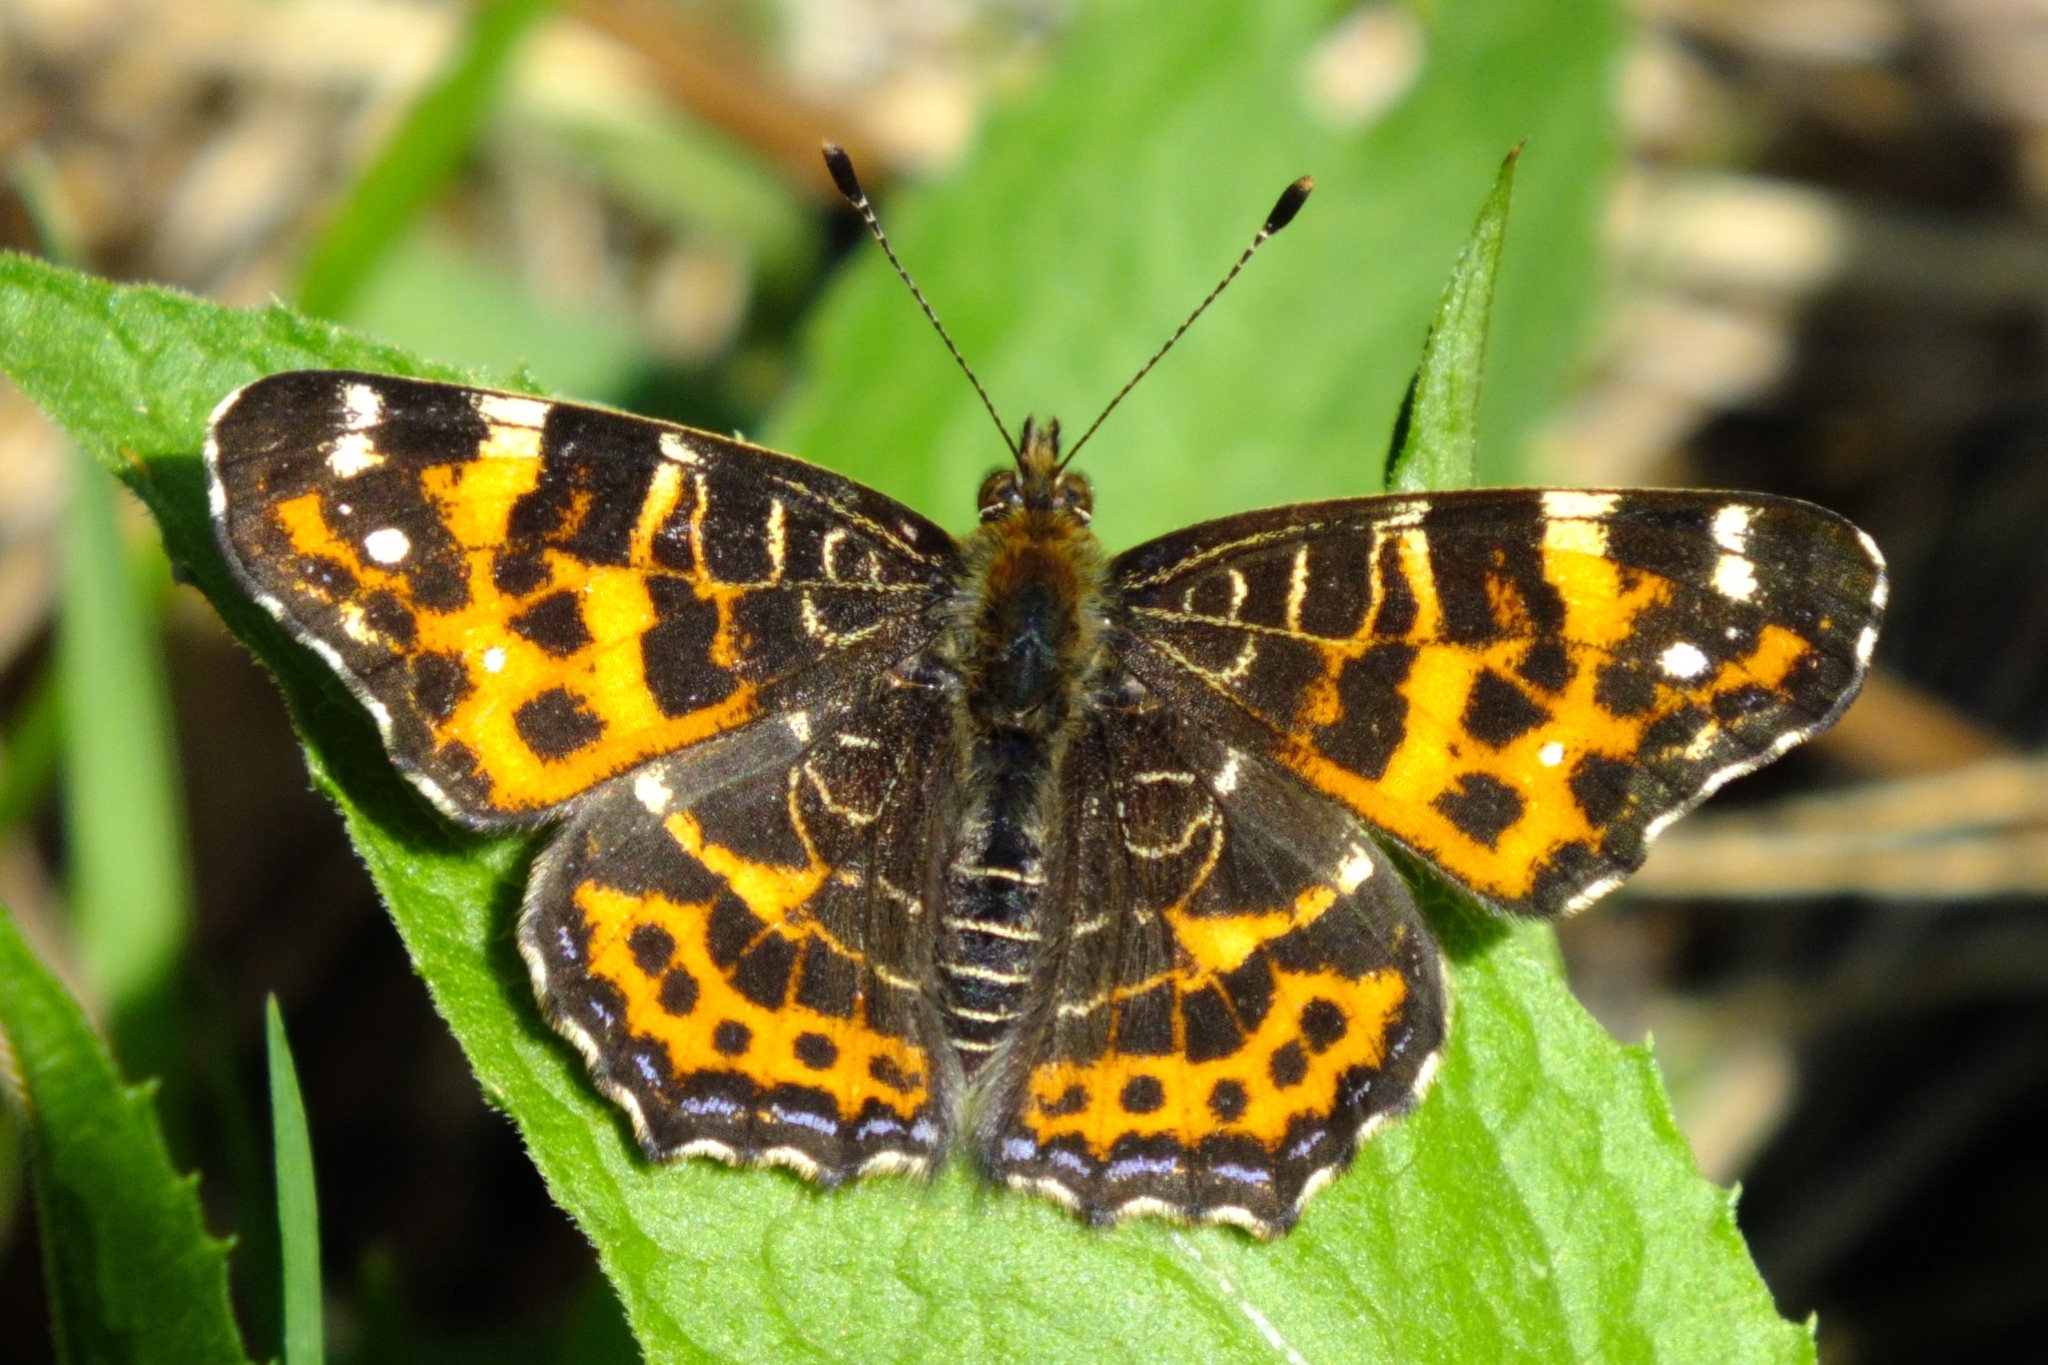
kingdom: Animalia
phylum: Arthropoda
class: Insecta
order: Lepidoptera
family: Nymphalidae
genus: Araschnia
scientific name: Araschnia levana
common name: Map butterfly
